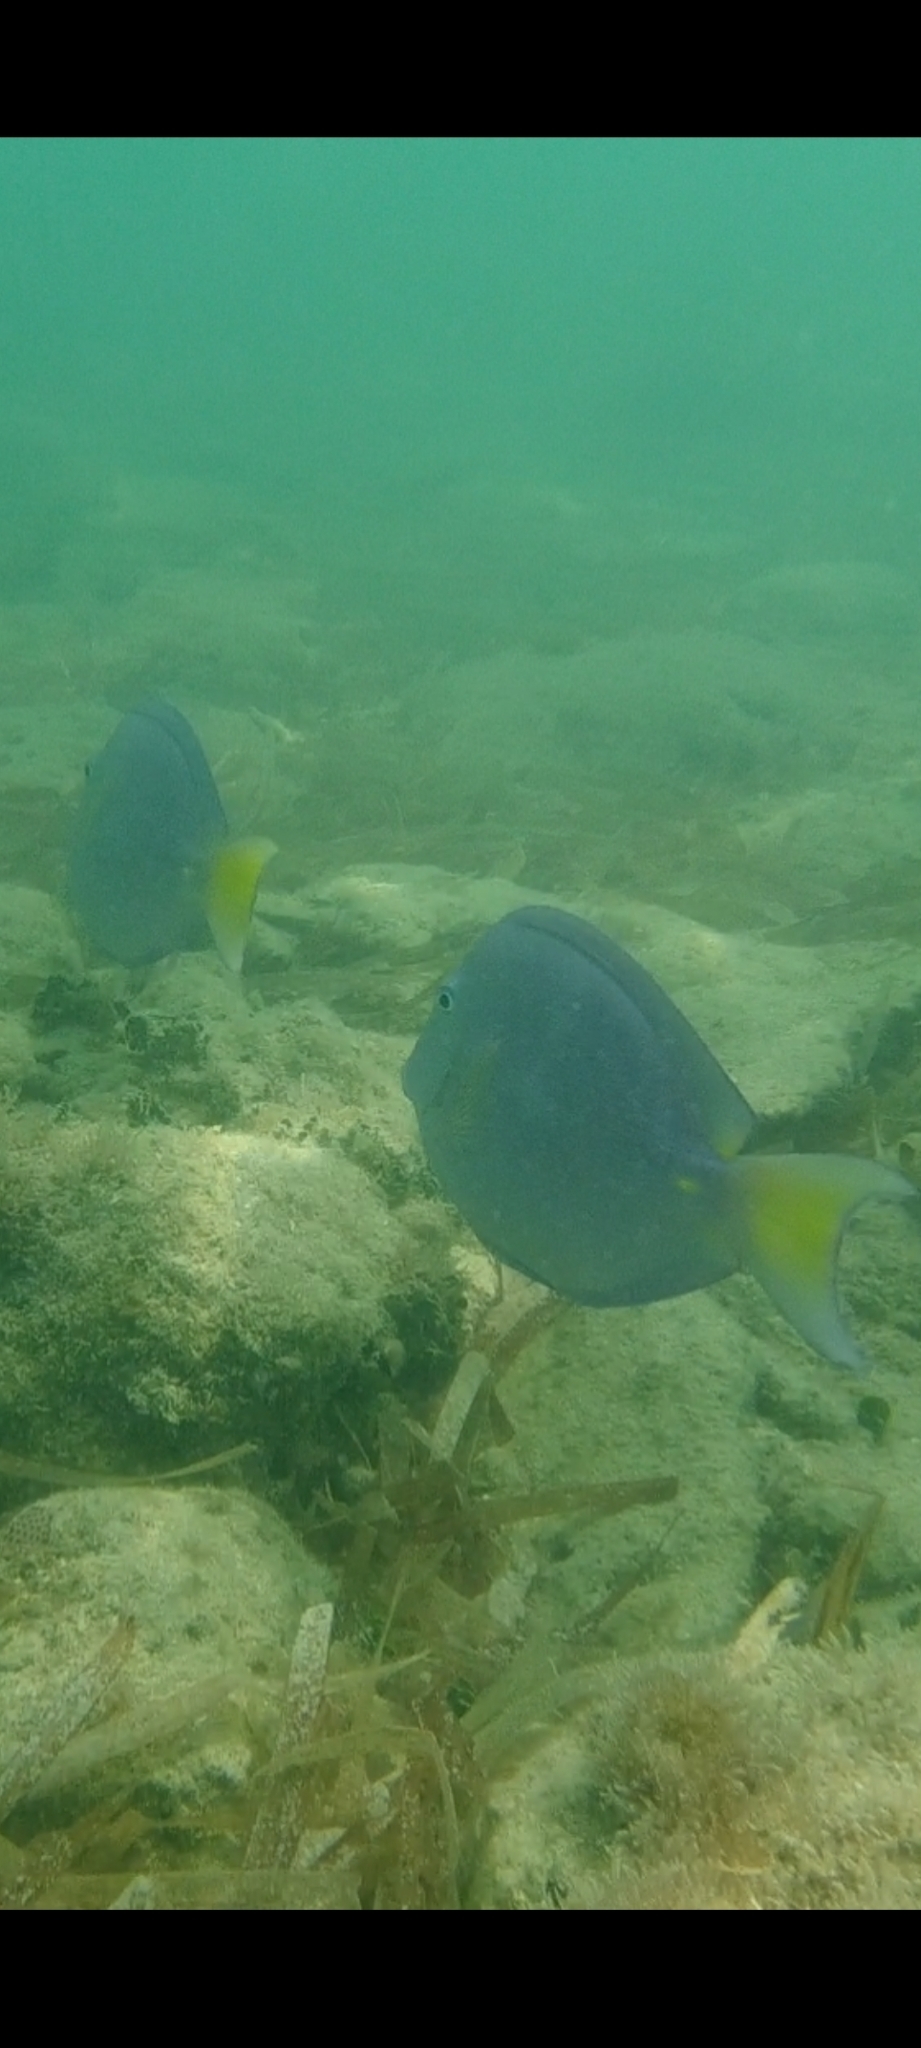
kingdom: Animalia
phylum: Chordata
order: Perciformes
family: Acanthuridae
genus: Acanthurus
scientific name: Acanthurus coeruleus
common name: Blue tang
